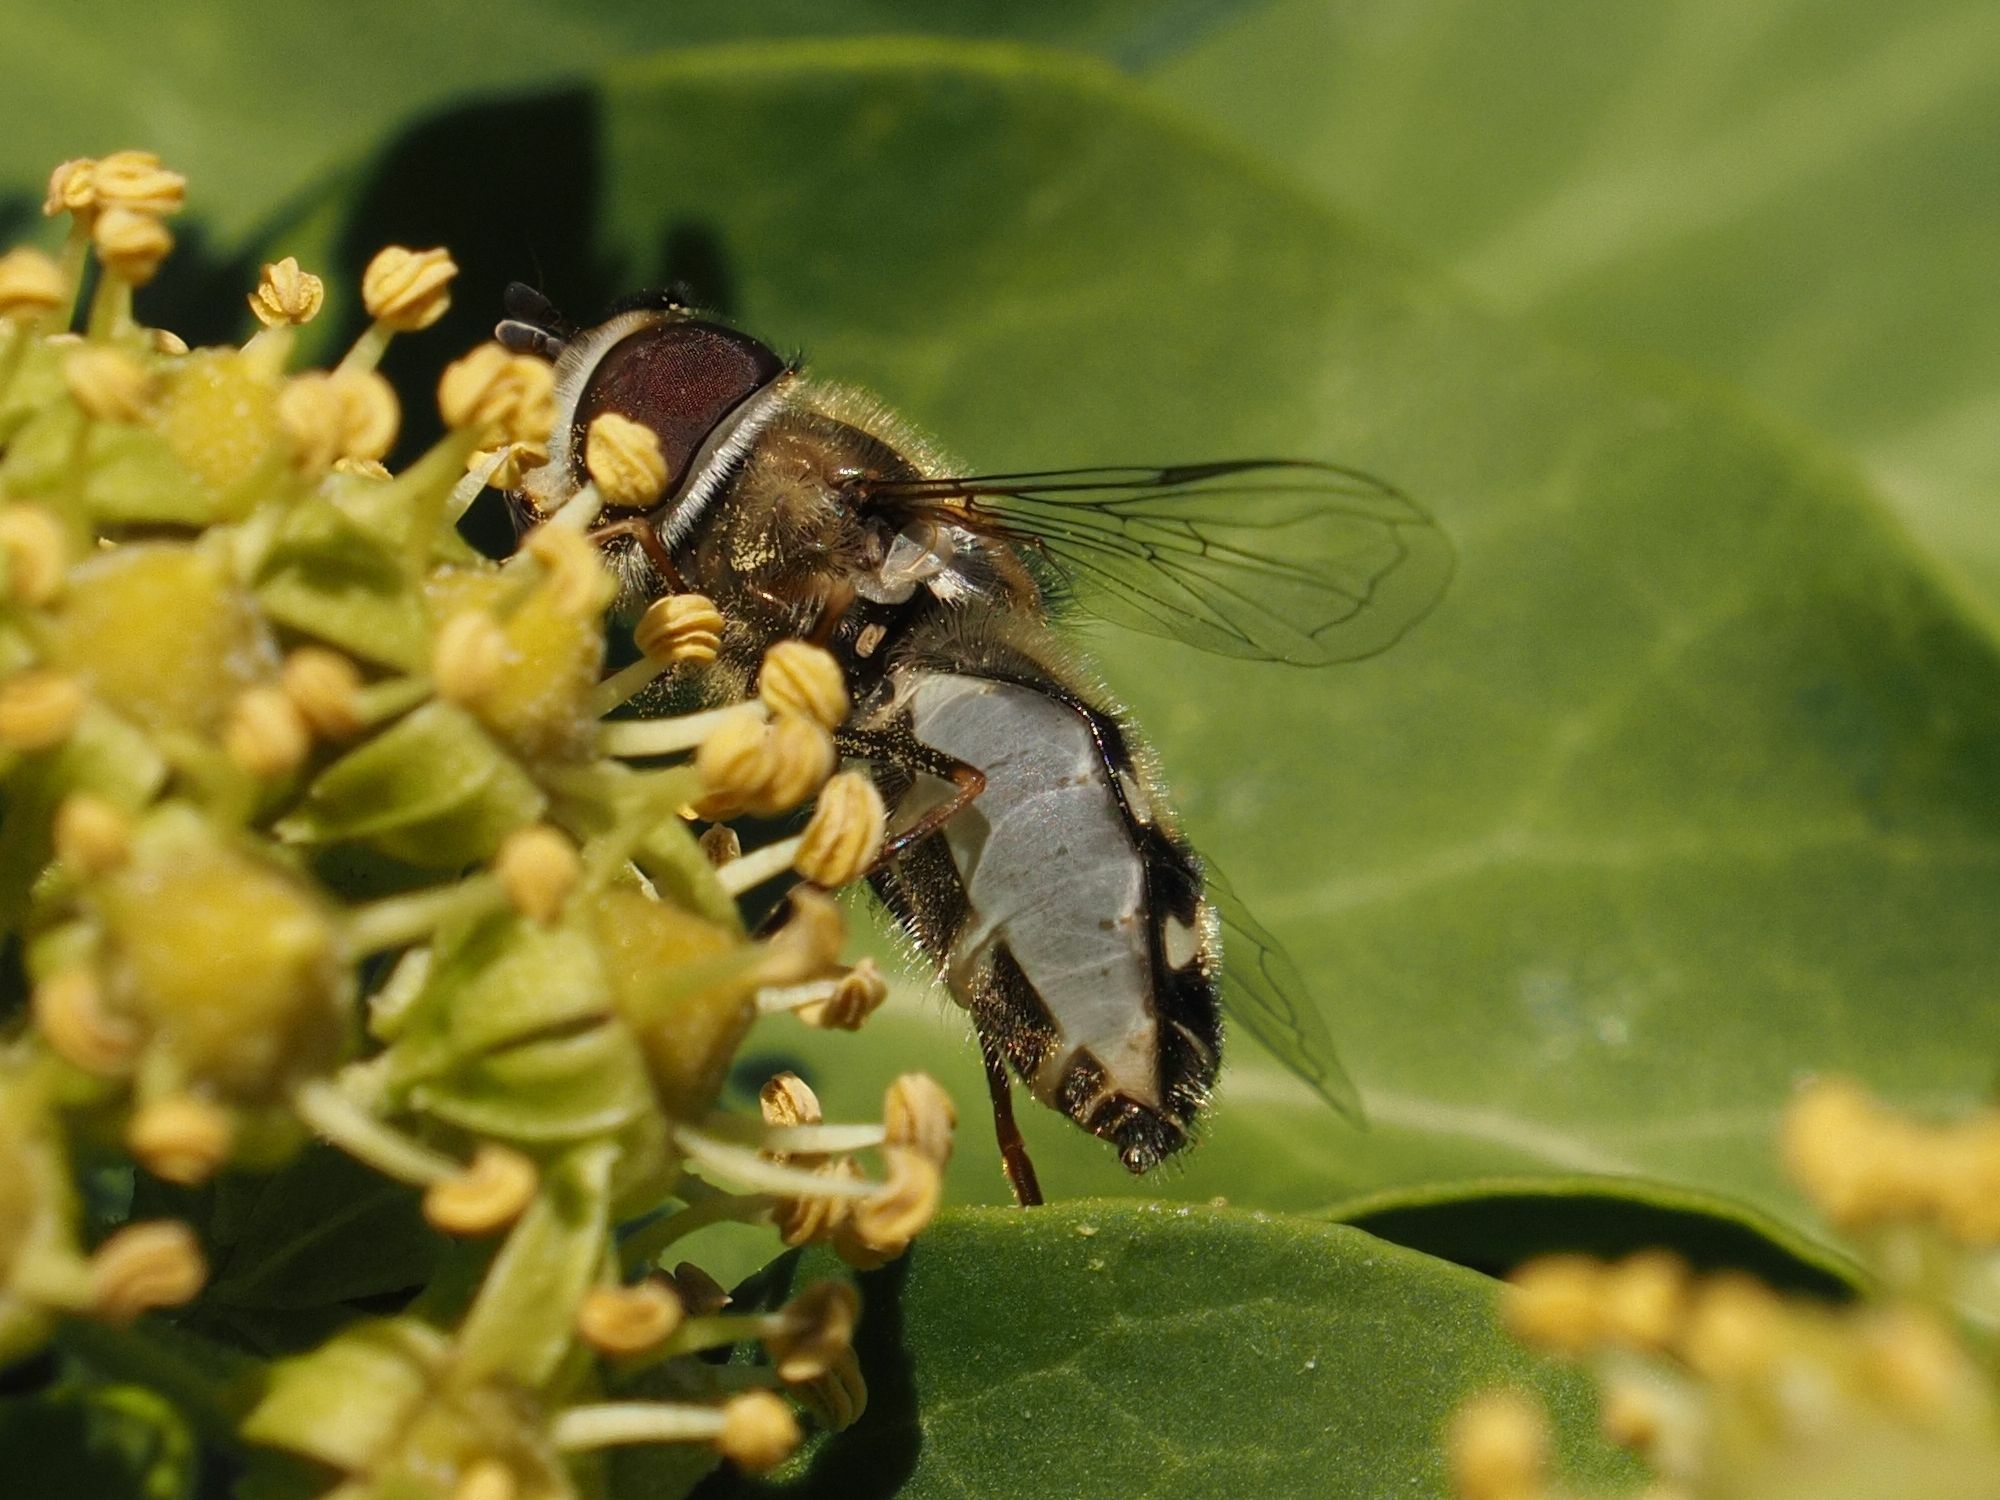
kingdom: Animalia
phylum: Arthropoda
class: Insecta
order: Diptera
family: Syrphidae
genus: Scaeva
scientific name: Scaeva pyrastri
